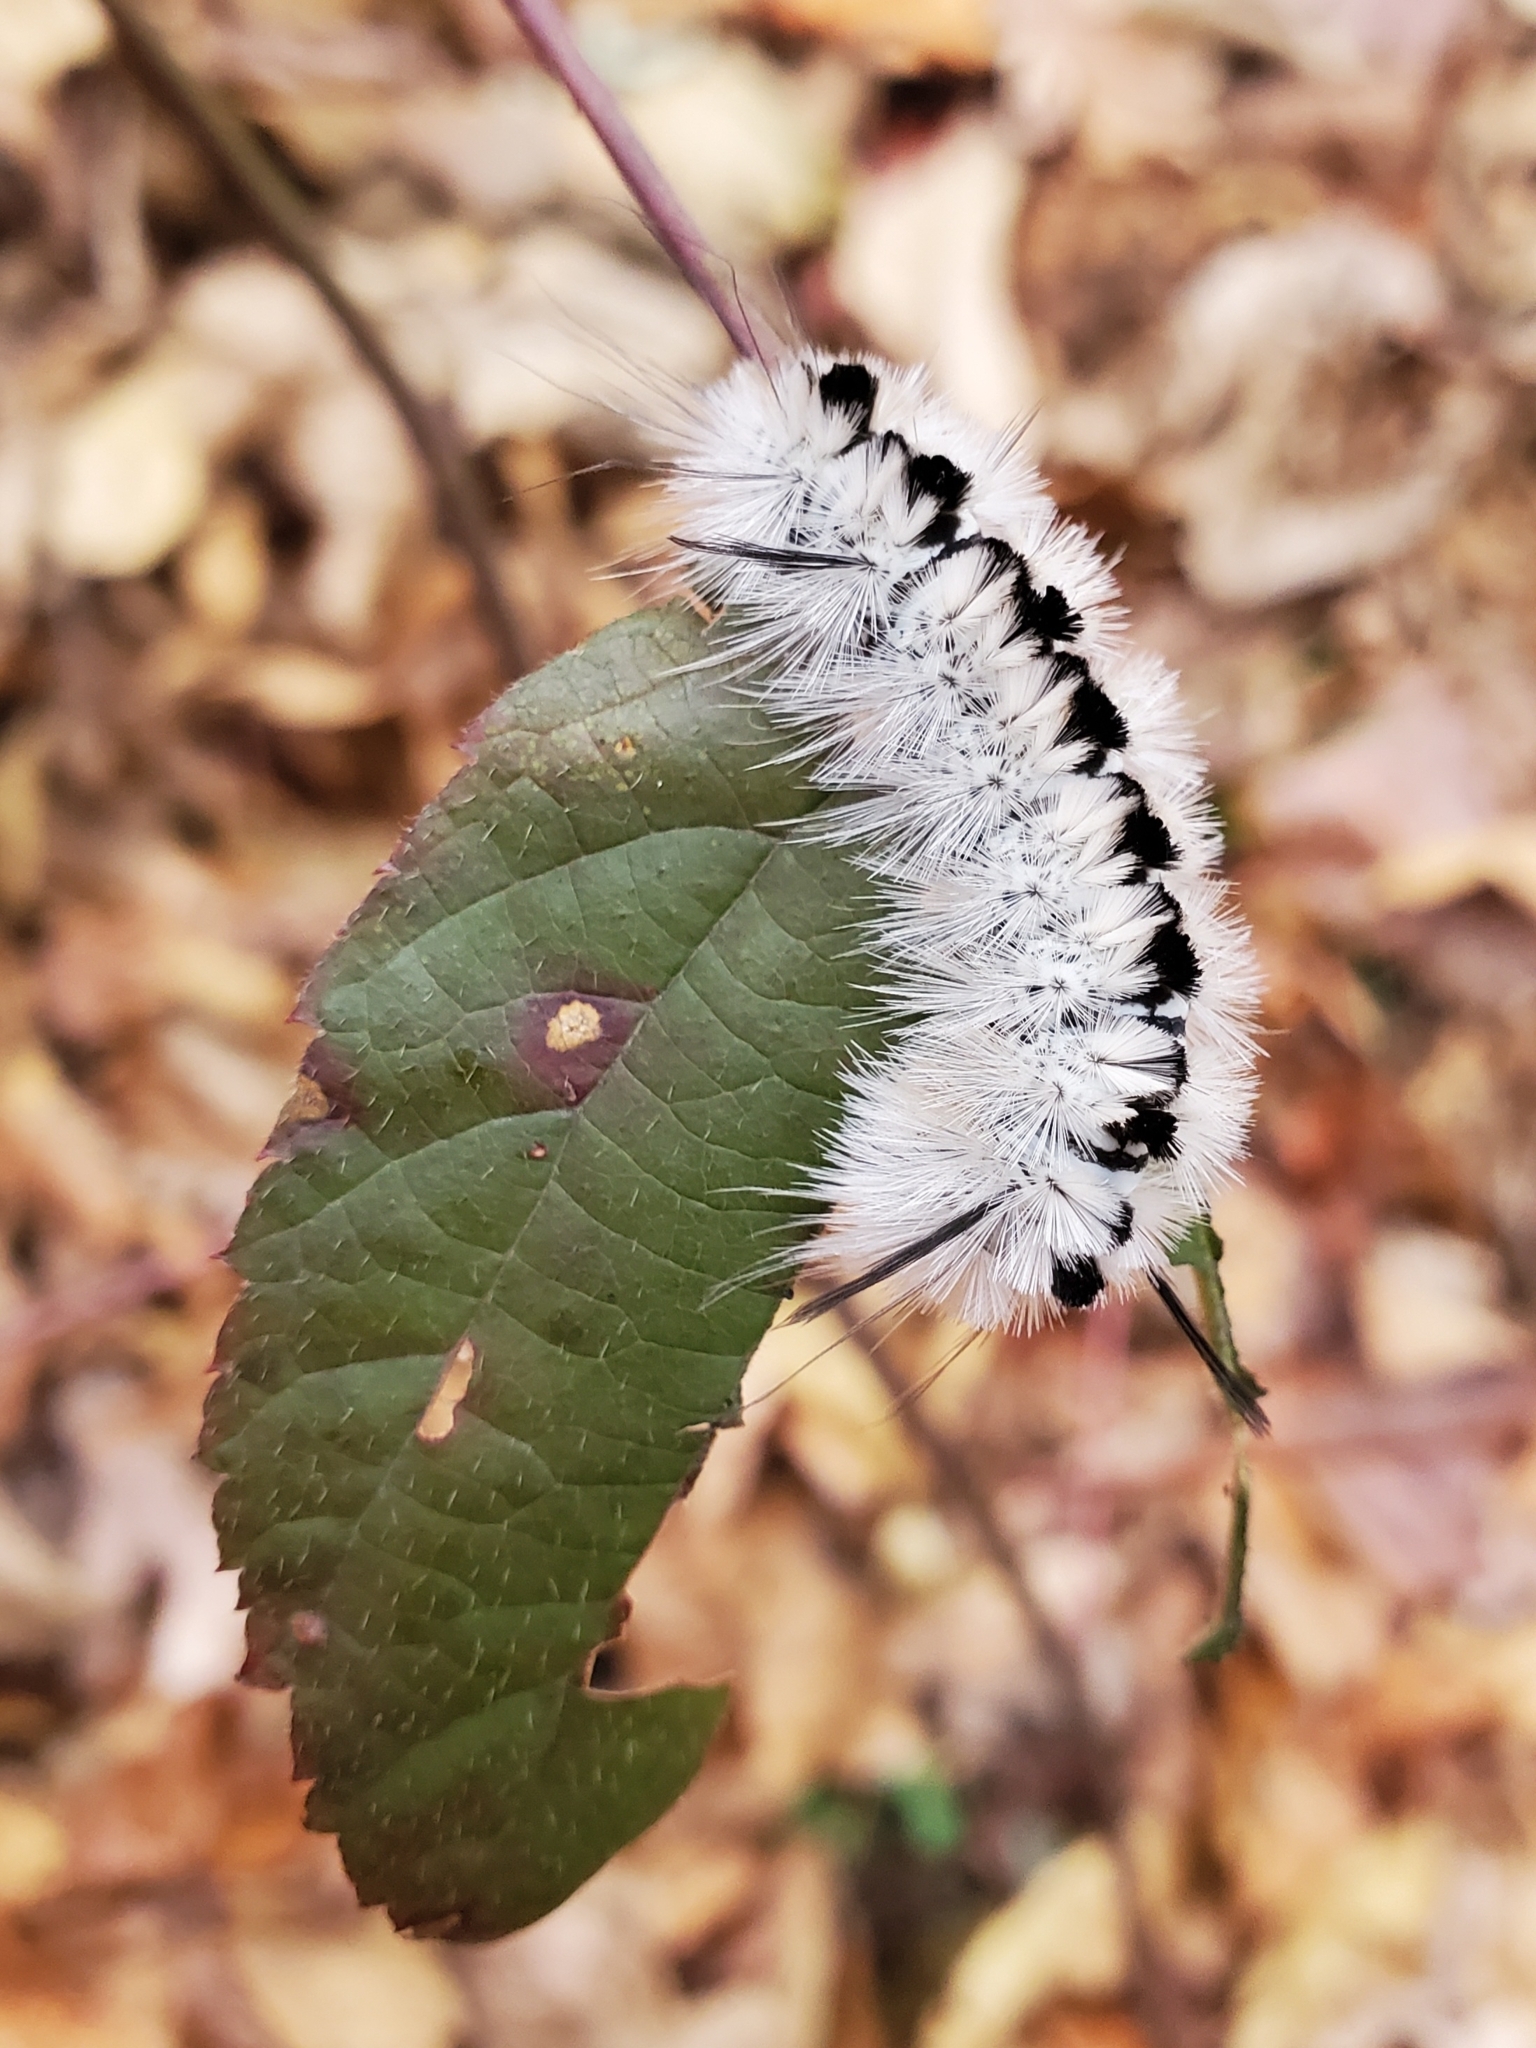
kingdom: Animalia
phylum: Arthropoda
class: Insecta
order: Lepidoptera
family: Erebidae
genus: Lophocampa
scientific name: Lophocampa caryae
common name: Hickory tussock moth
